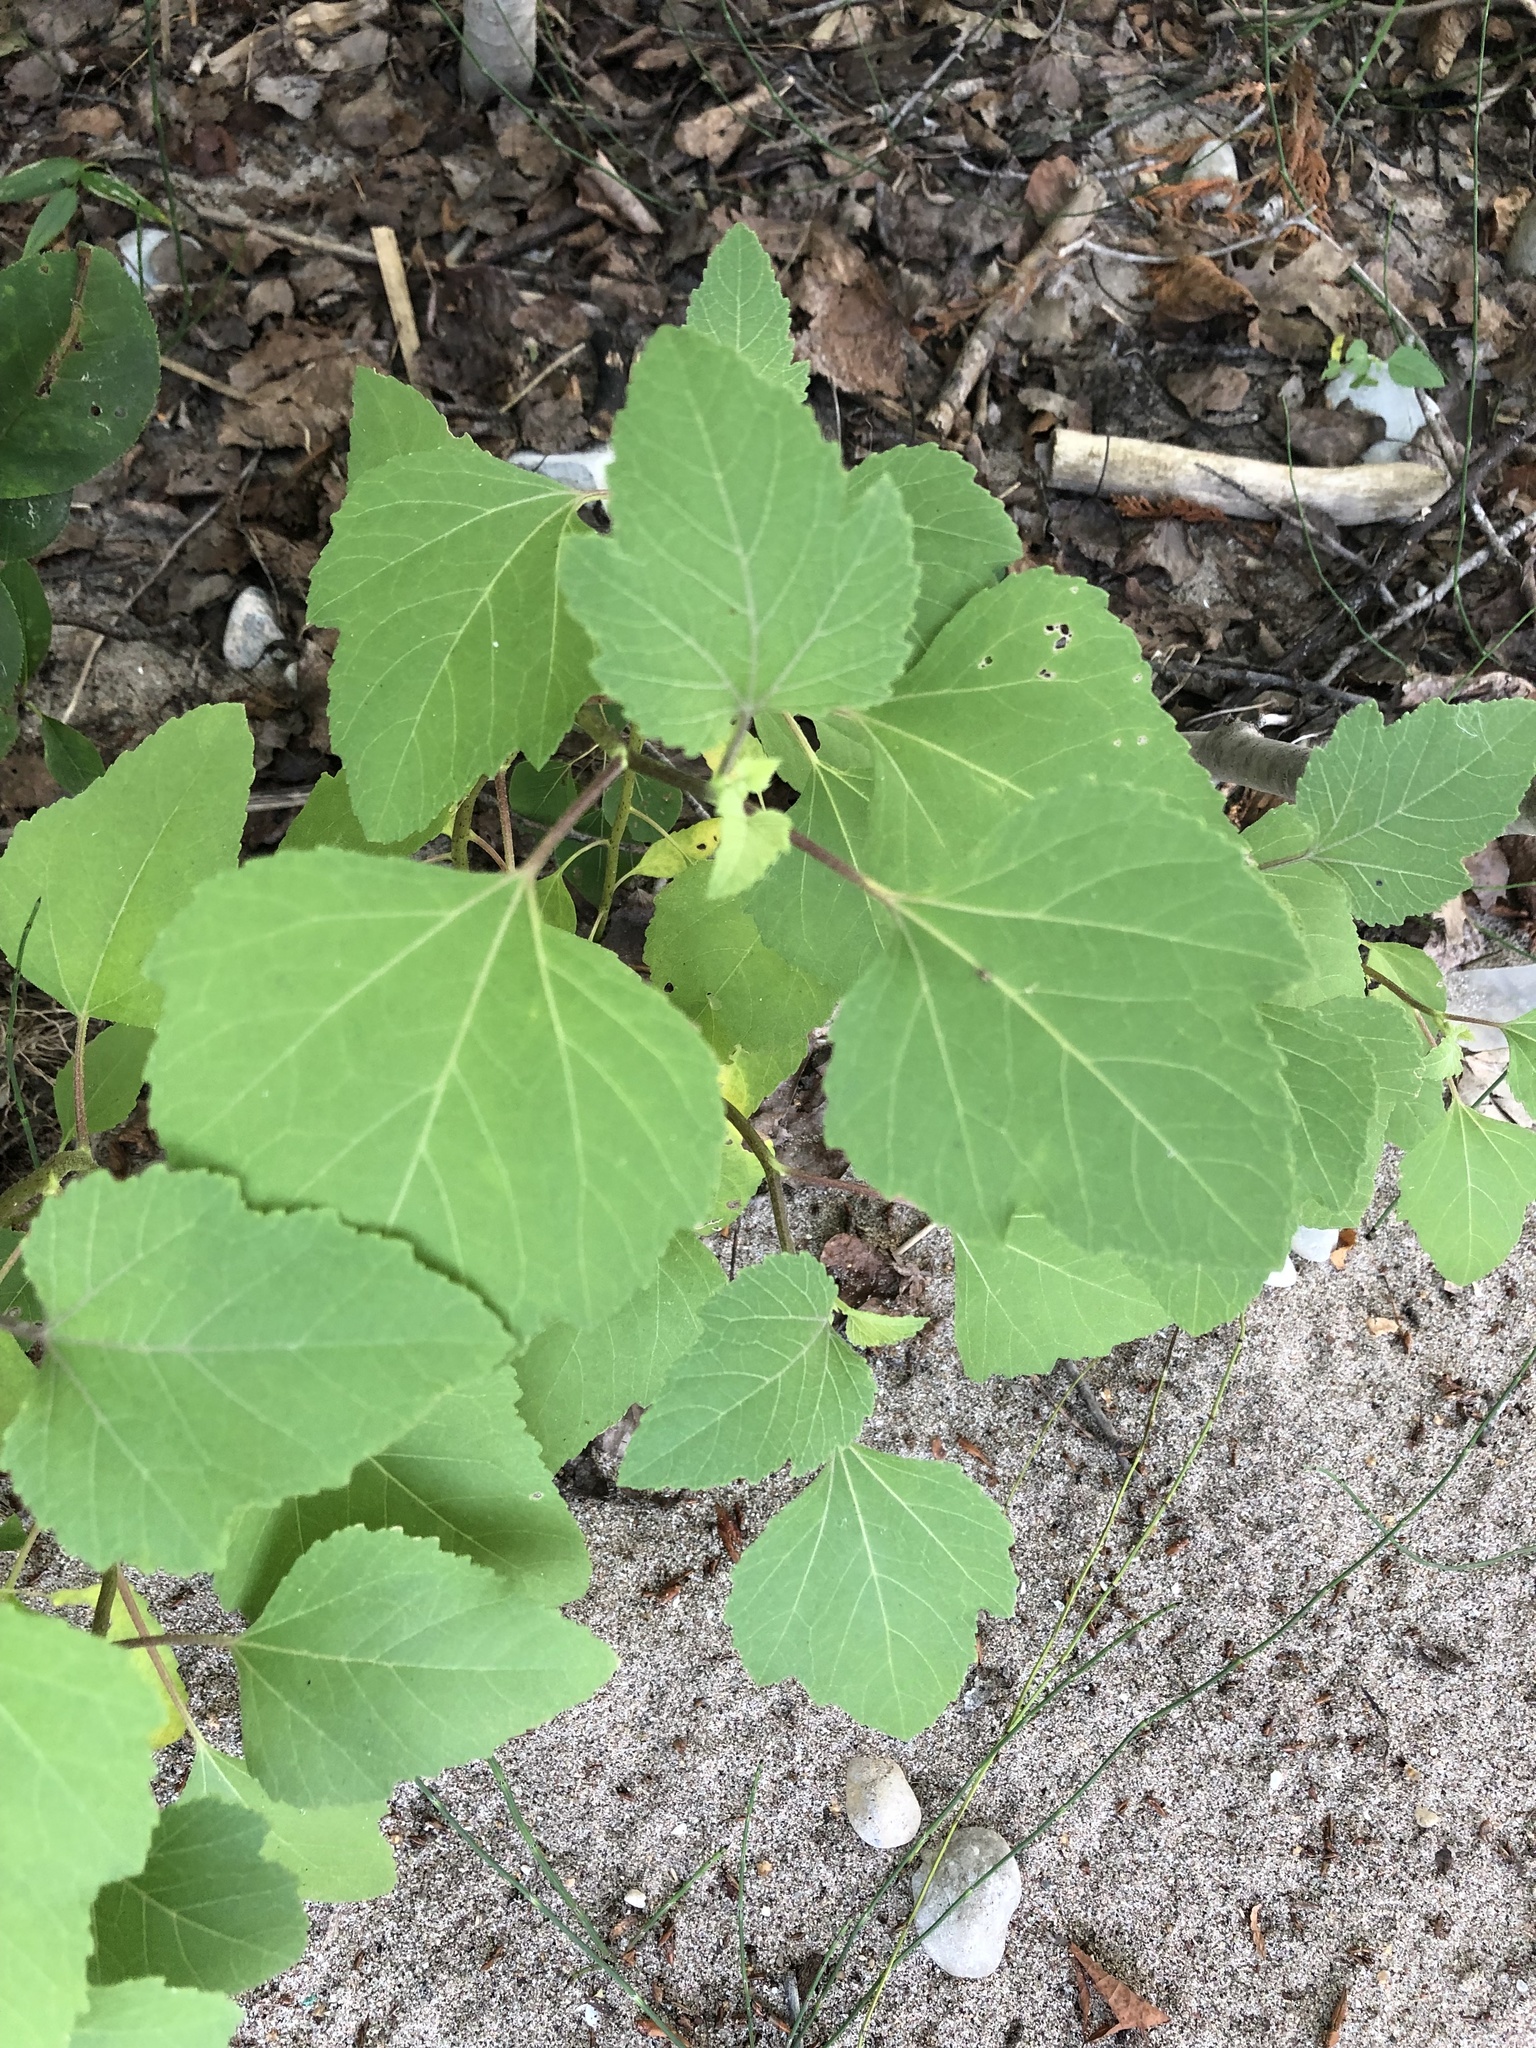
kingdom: Plantae
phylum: Tracheophyta
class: Magnoliopsida
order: Asterales
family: Asteraceae
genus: Xanthium
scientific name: Xanthium strumarium
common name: Rough cocklebur
